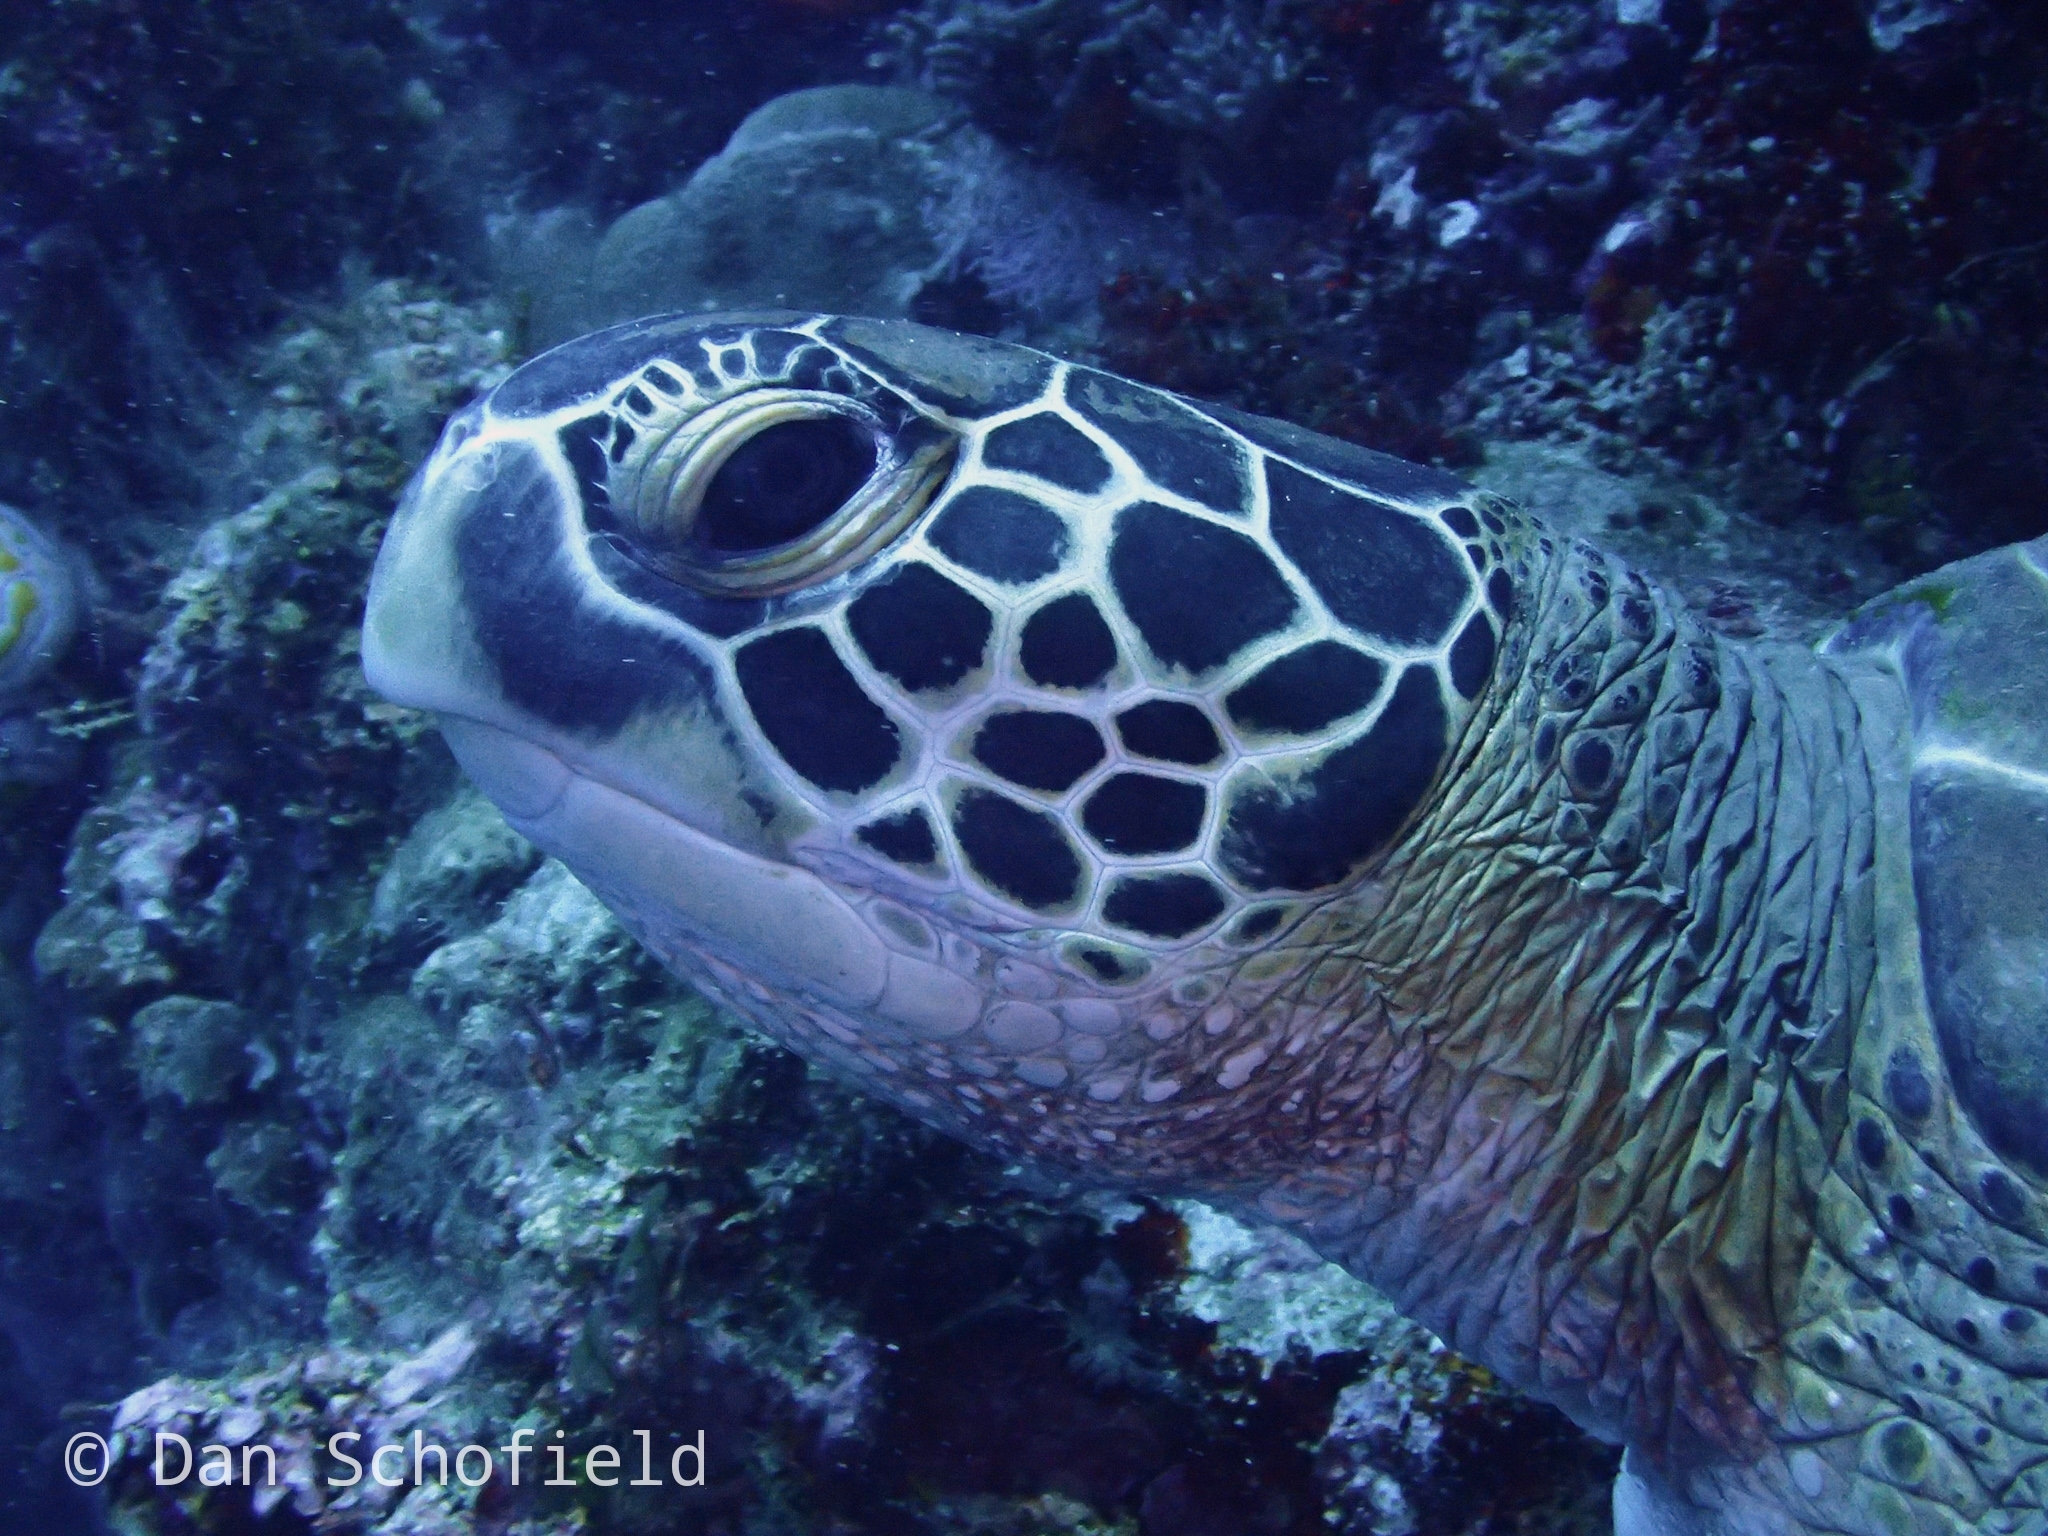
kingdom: Animalia
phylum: Chordata
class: Testudines
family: Cheloniidae
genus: Chelonia
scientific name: Chelonia mydas
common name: Green turtle
